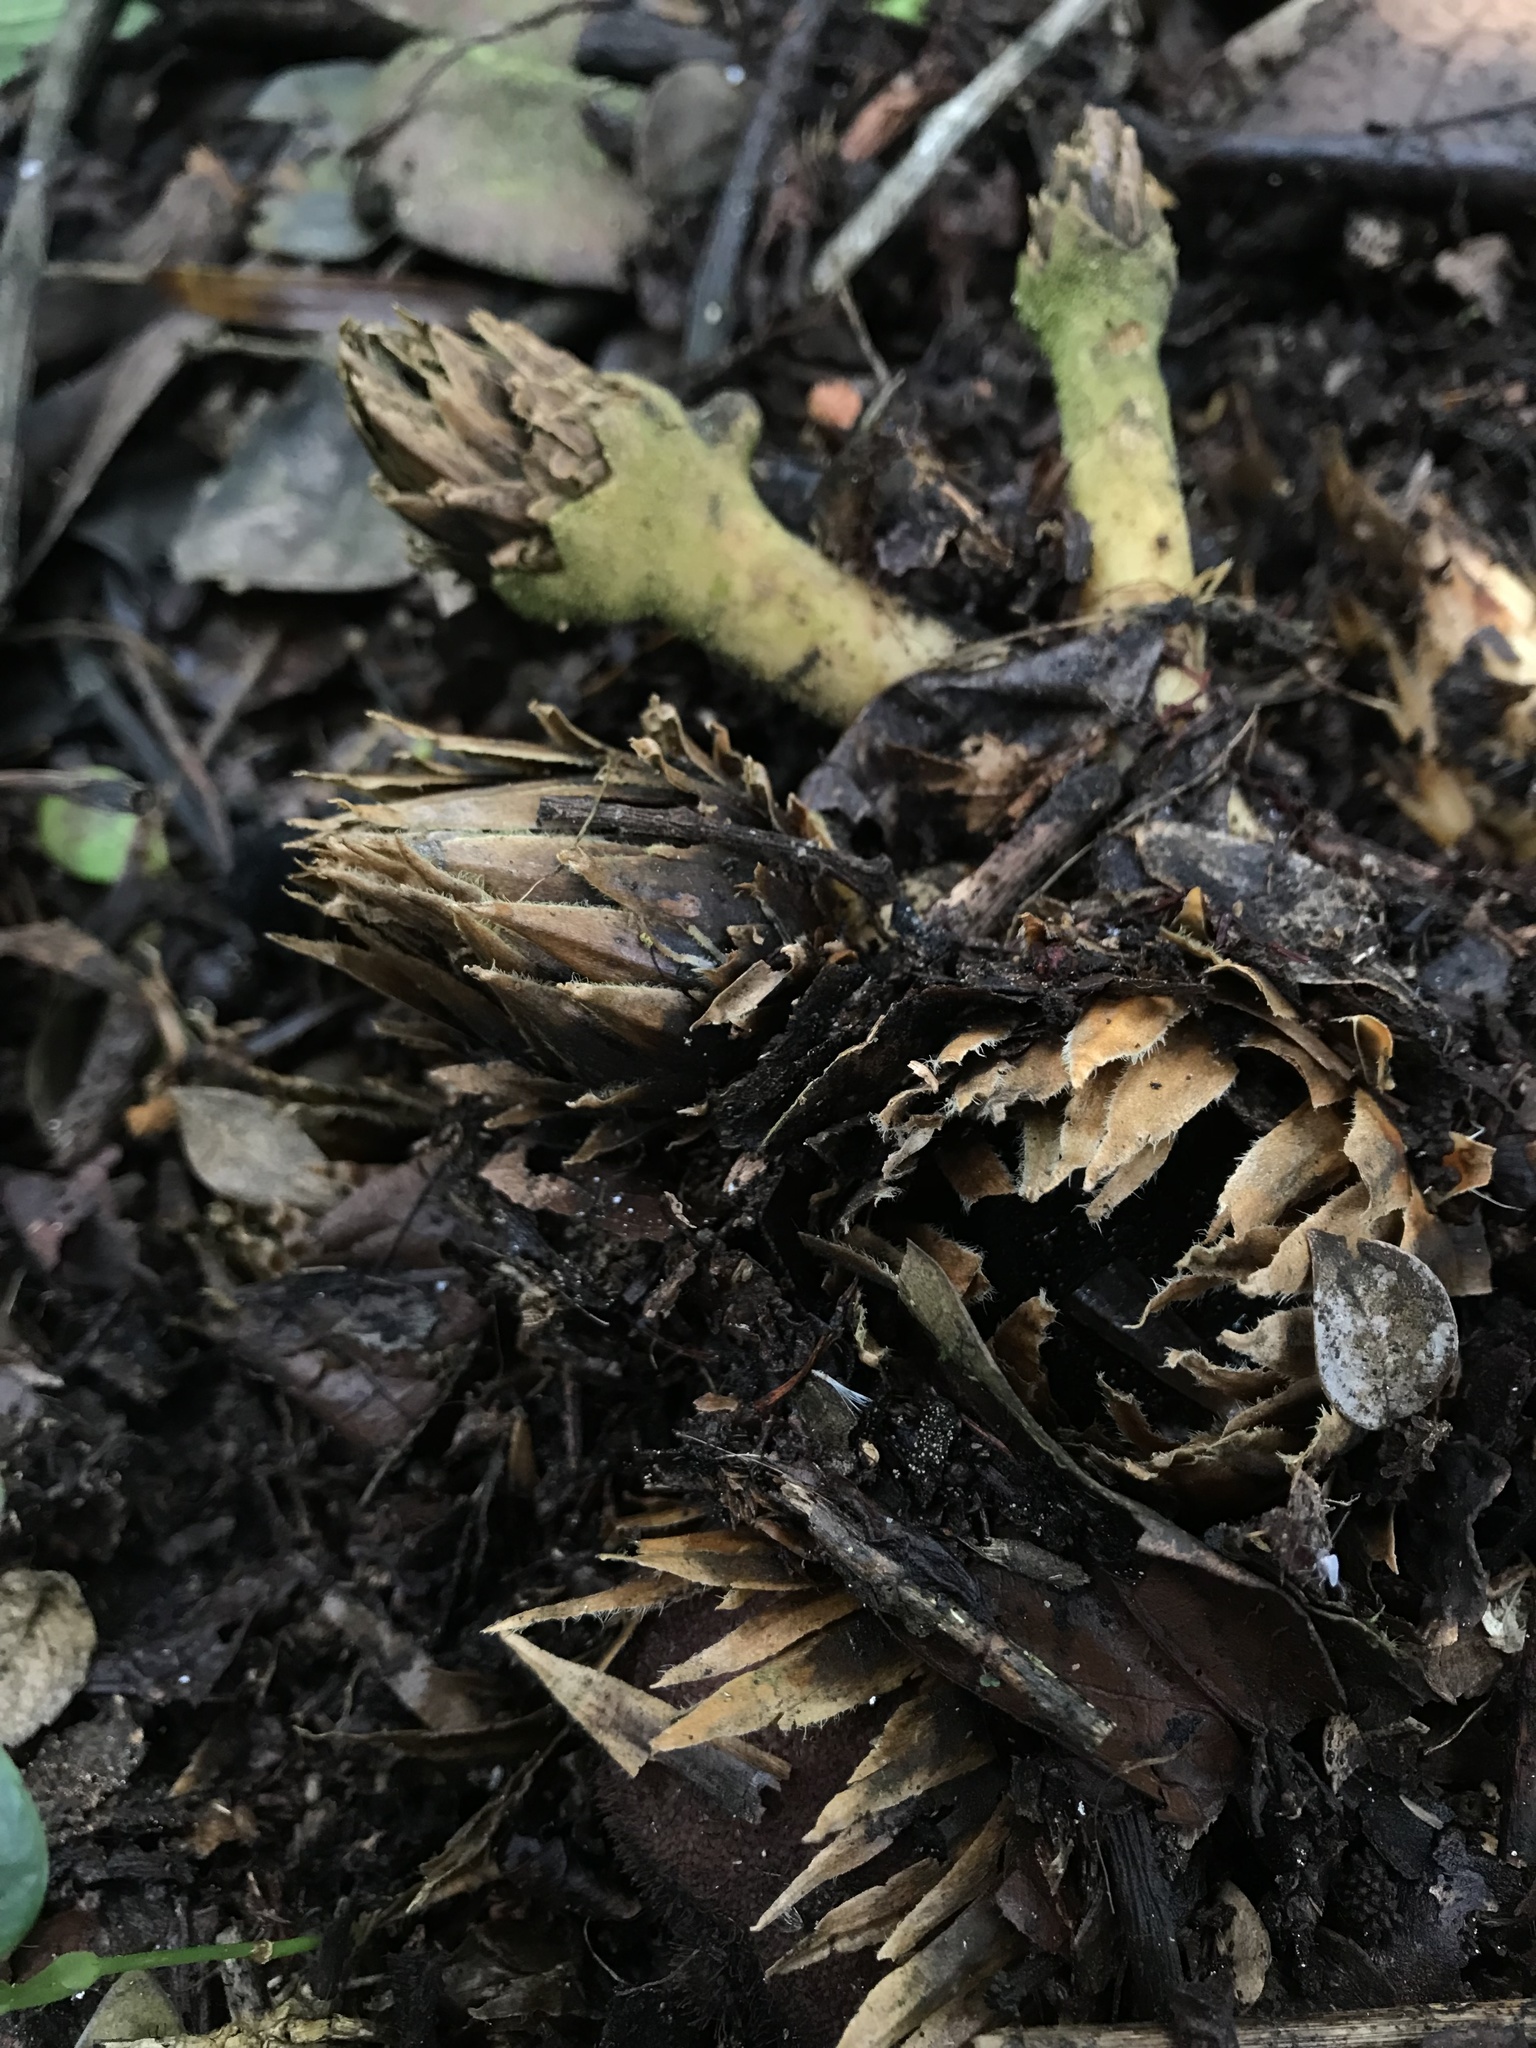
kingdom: Plantae
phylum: Tracheophyta
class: Magnoliopsida
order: Santalales
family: Balanophoraceae
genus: Langsdorffia
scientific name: Langsdorffia hypogaea
